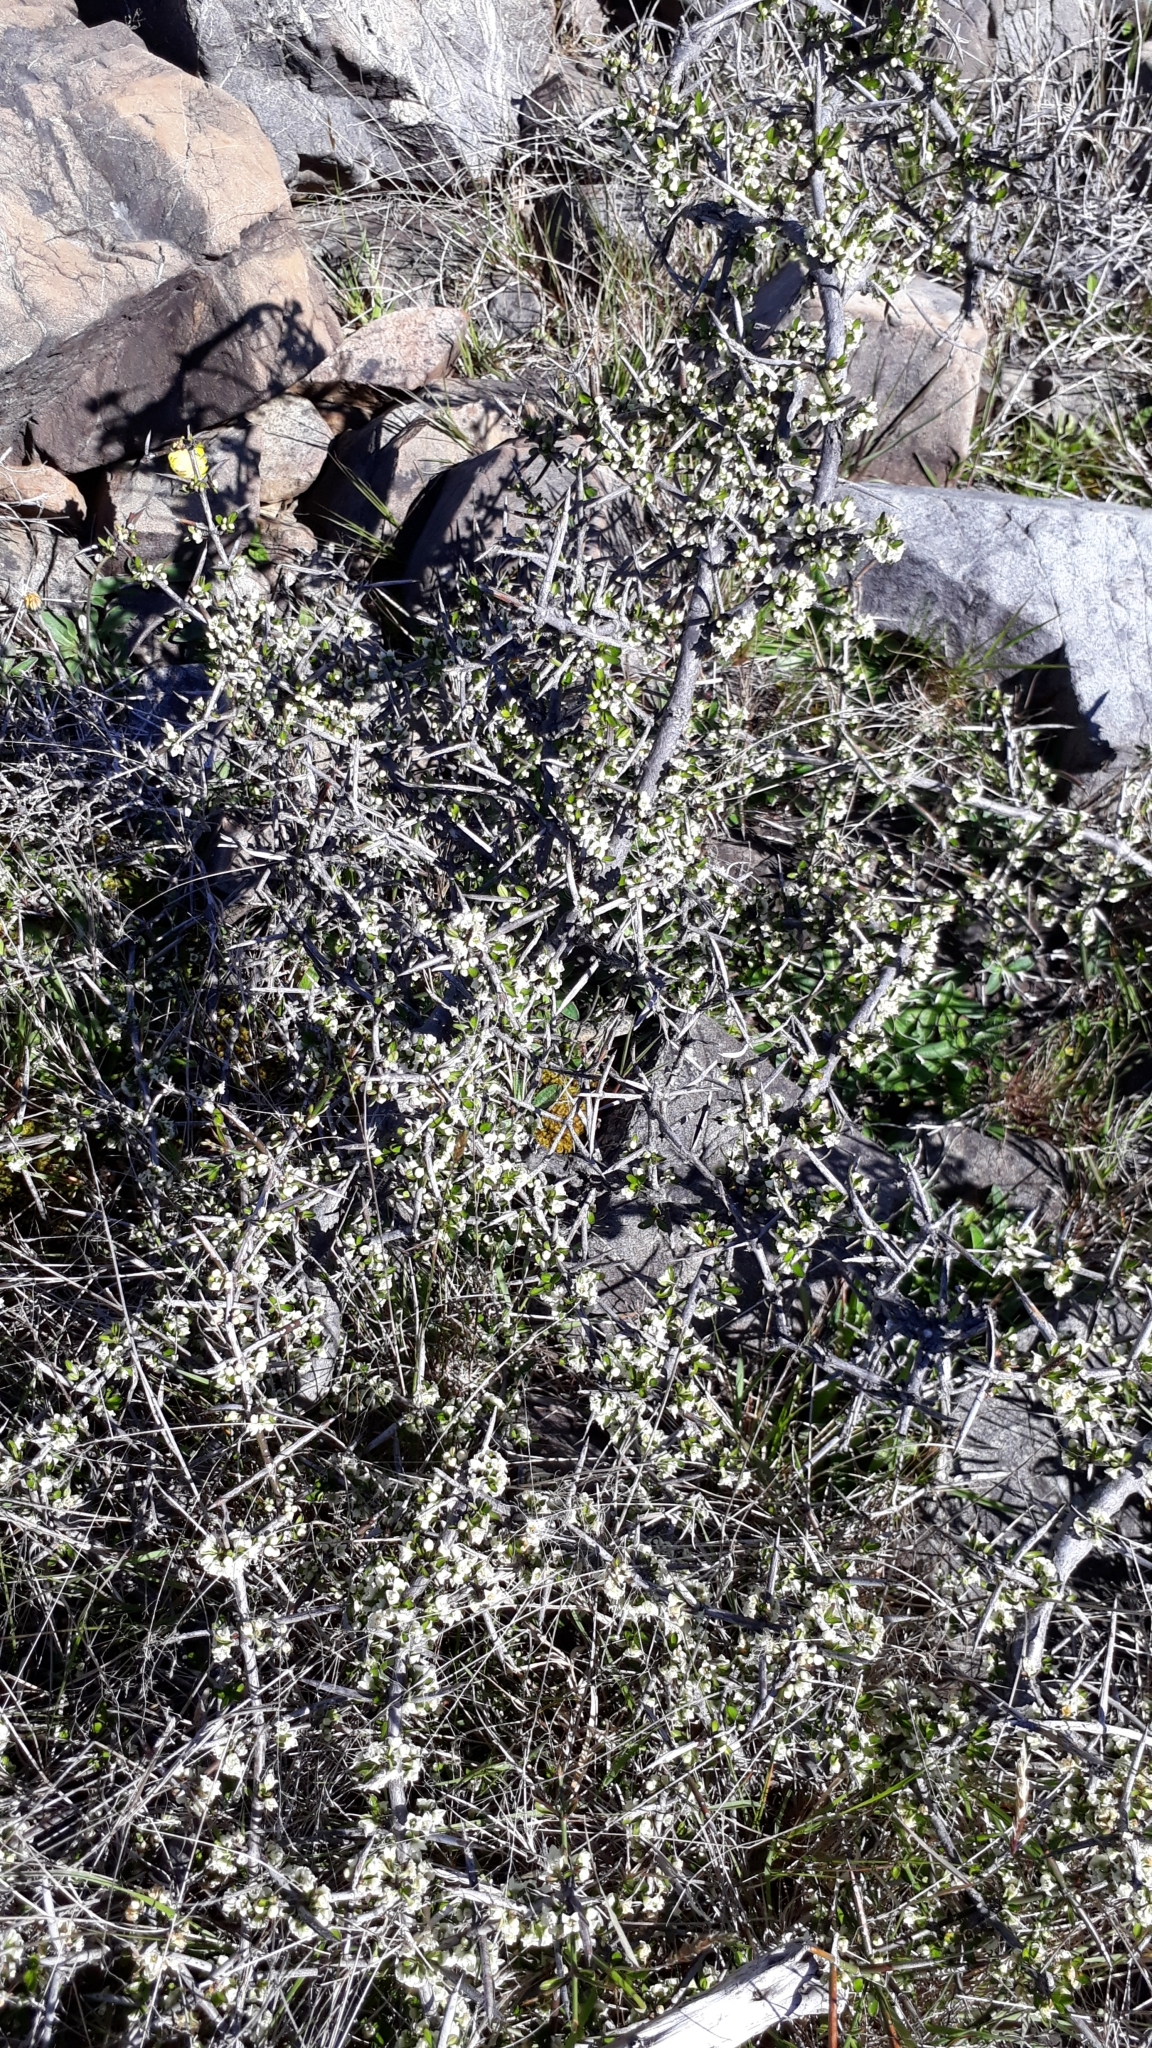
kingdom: Plantae
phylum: Tracheophyta
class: Magnoliopsida
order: Rosales
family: Rhamnaceae
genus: Discaria
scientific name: Discaria toumatou
